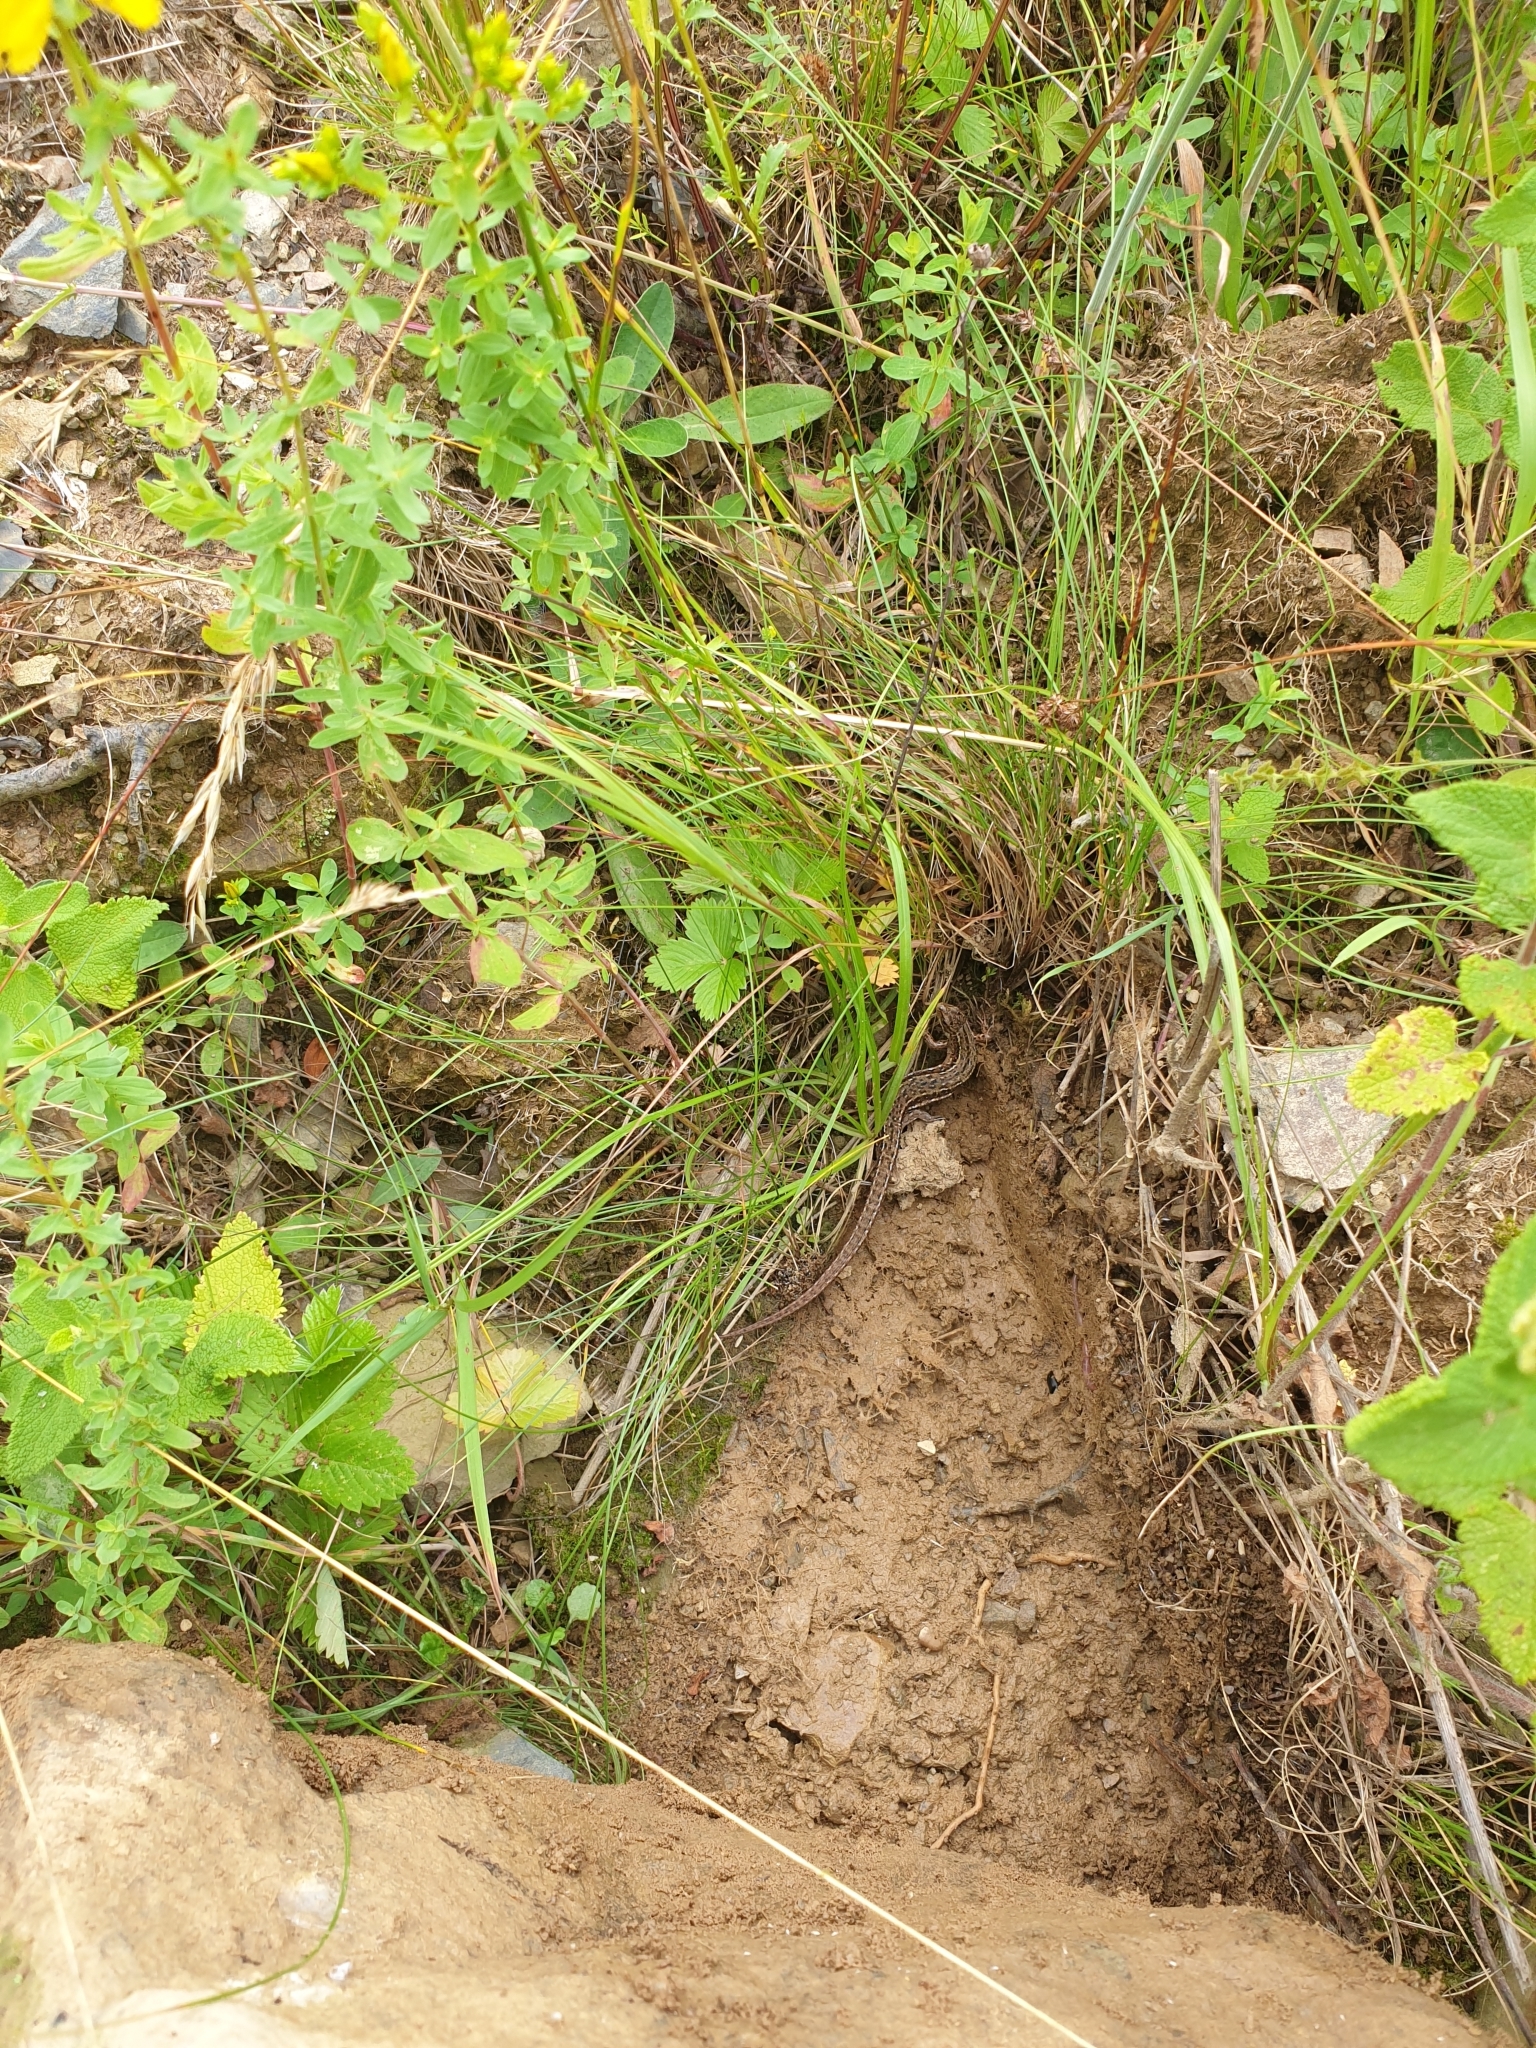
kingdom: Animalia
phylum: Chordata
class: Squamata
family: Lacertidae
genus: Zootoca
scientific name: Zootoca vivipara
